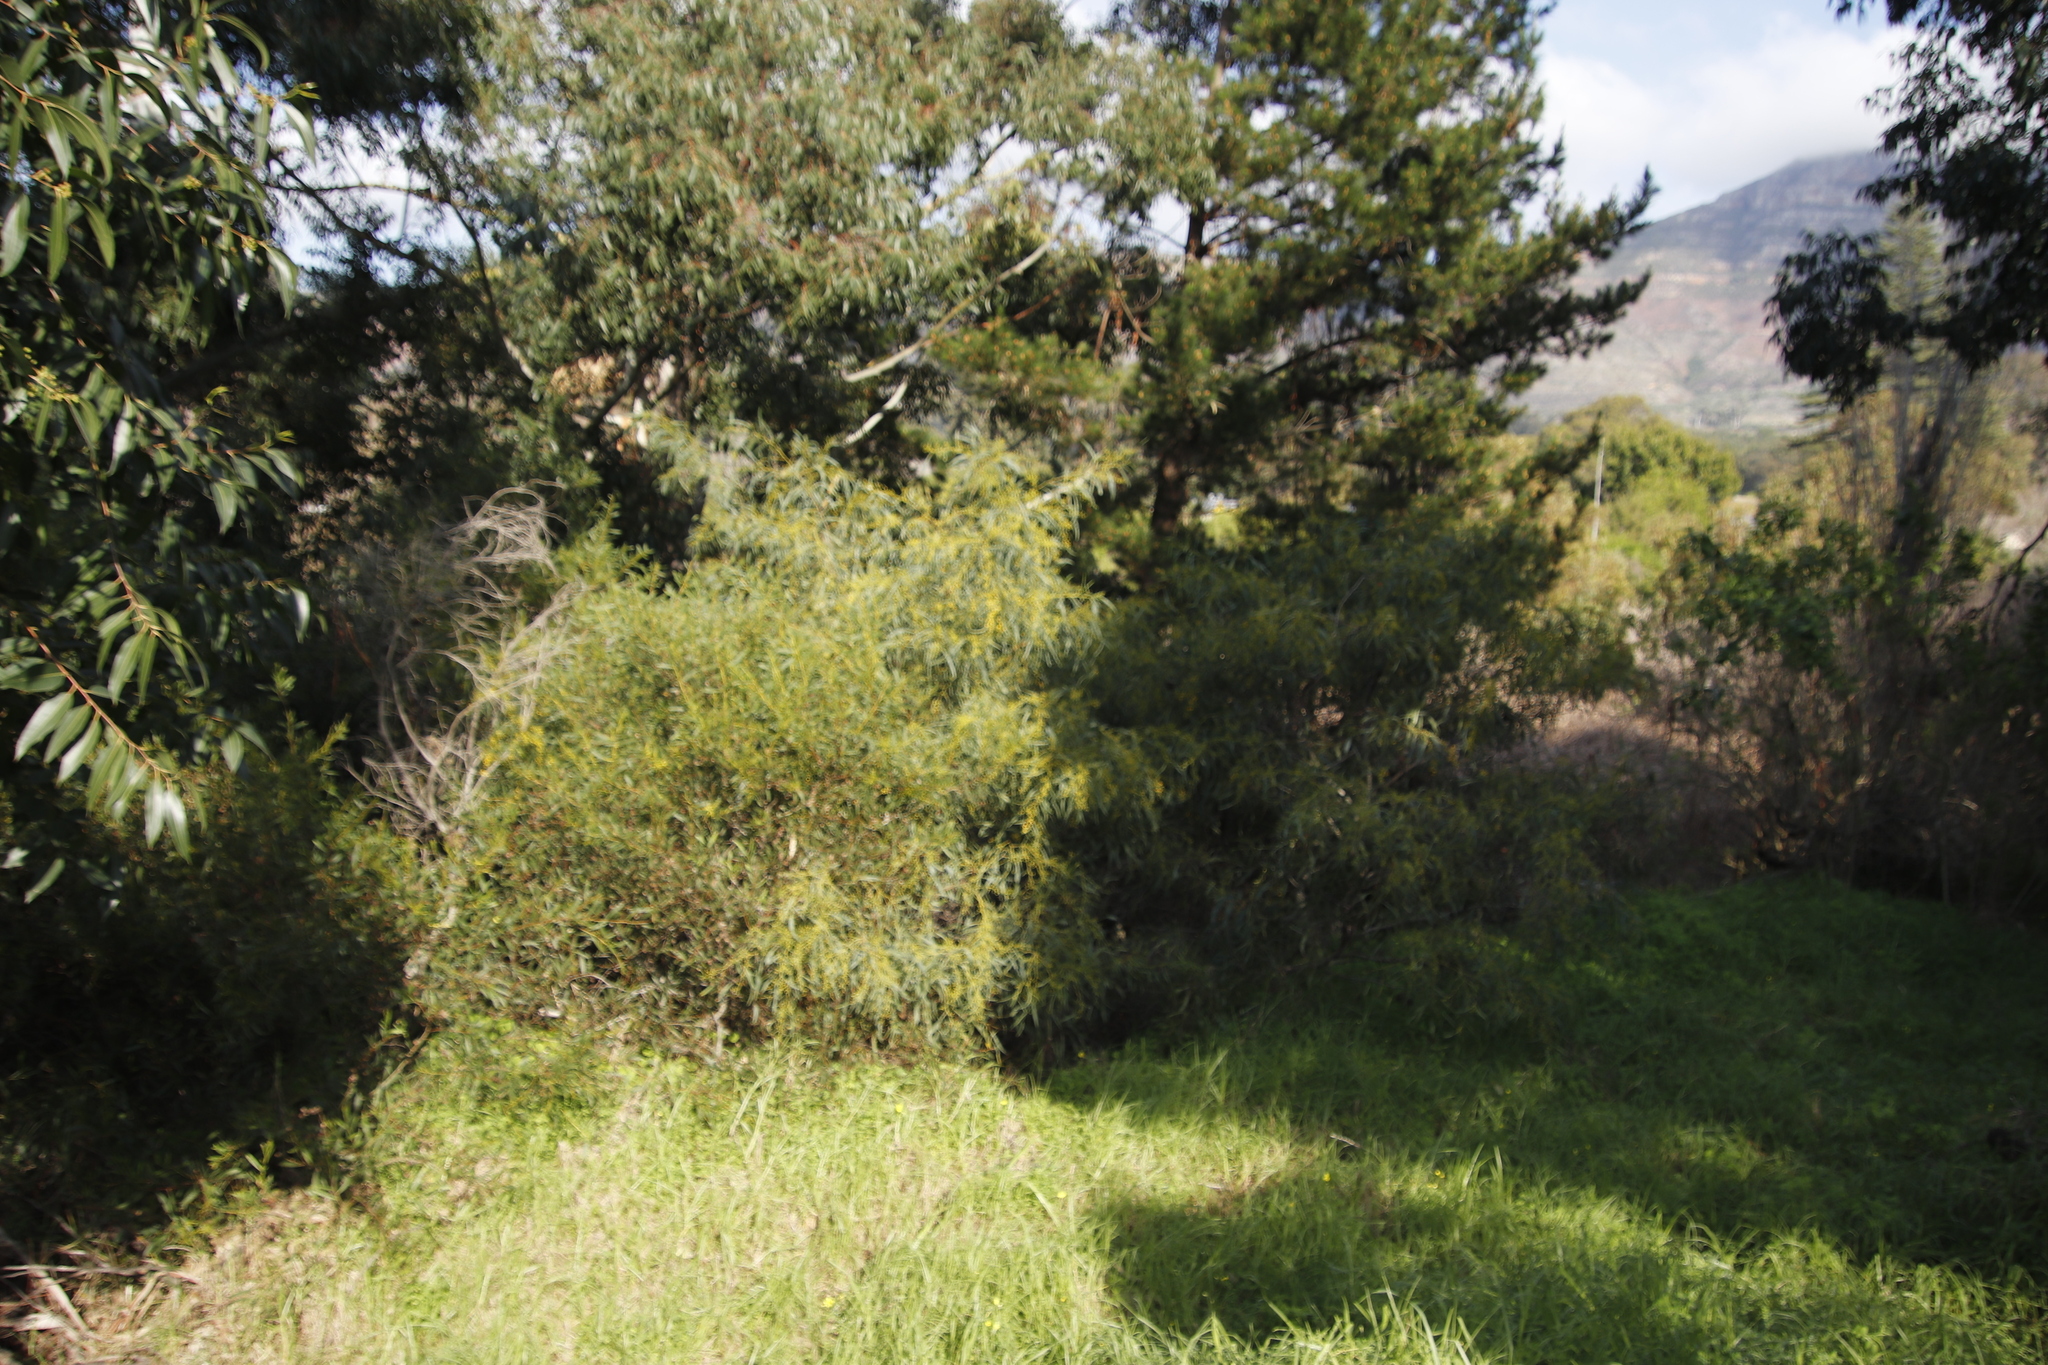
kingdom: Plantae
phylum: Tracheophyta
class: Magnoliopsida
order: Fabales
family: Fabaceae
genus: Acacia
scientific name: Acacia saligna
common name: Orange wattle
